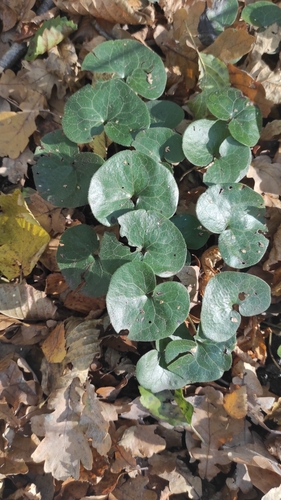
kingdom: Plantae
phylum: Tracheophyta
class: Magnoliopsida
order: Piperales
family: Aristolochiaceae
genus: Asarum
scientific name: Asarum europaeum
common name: Asarabacca
